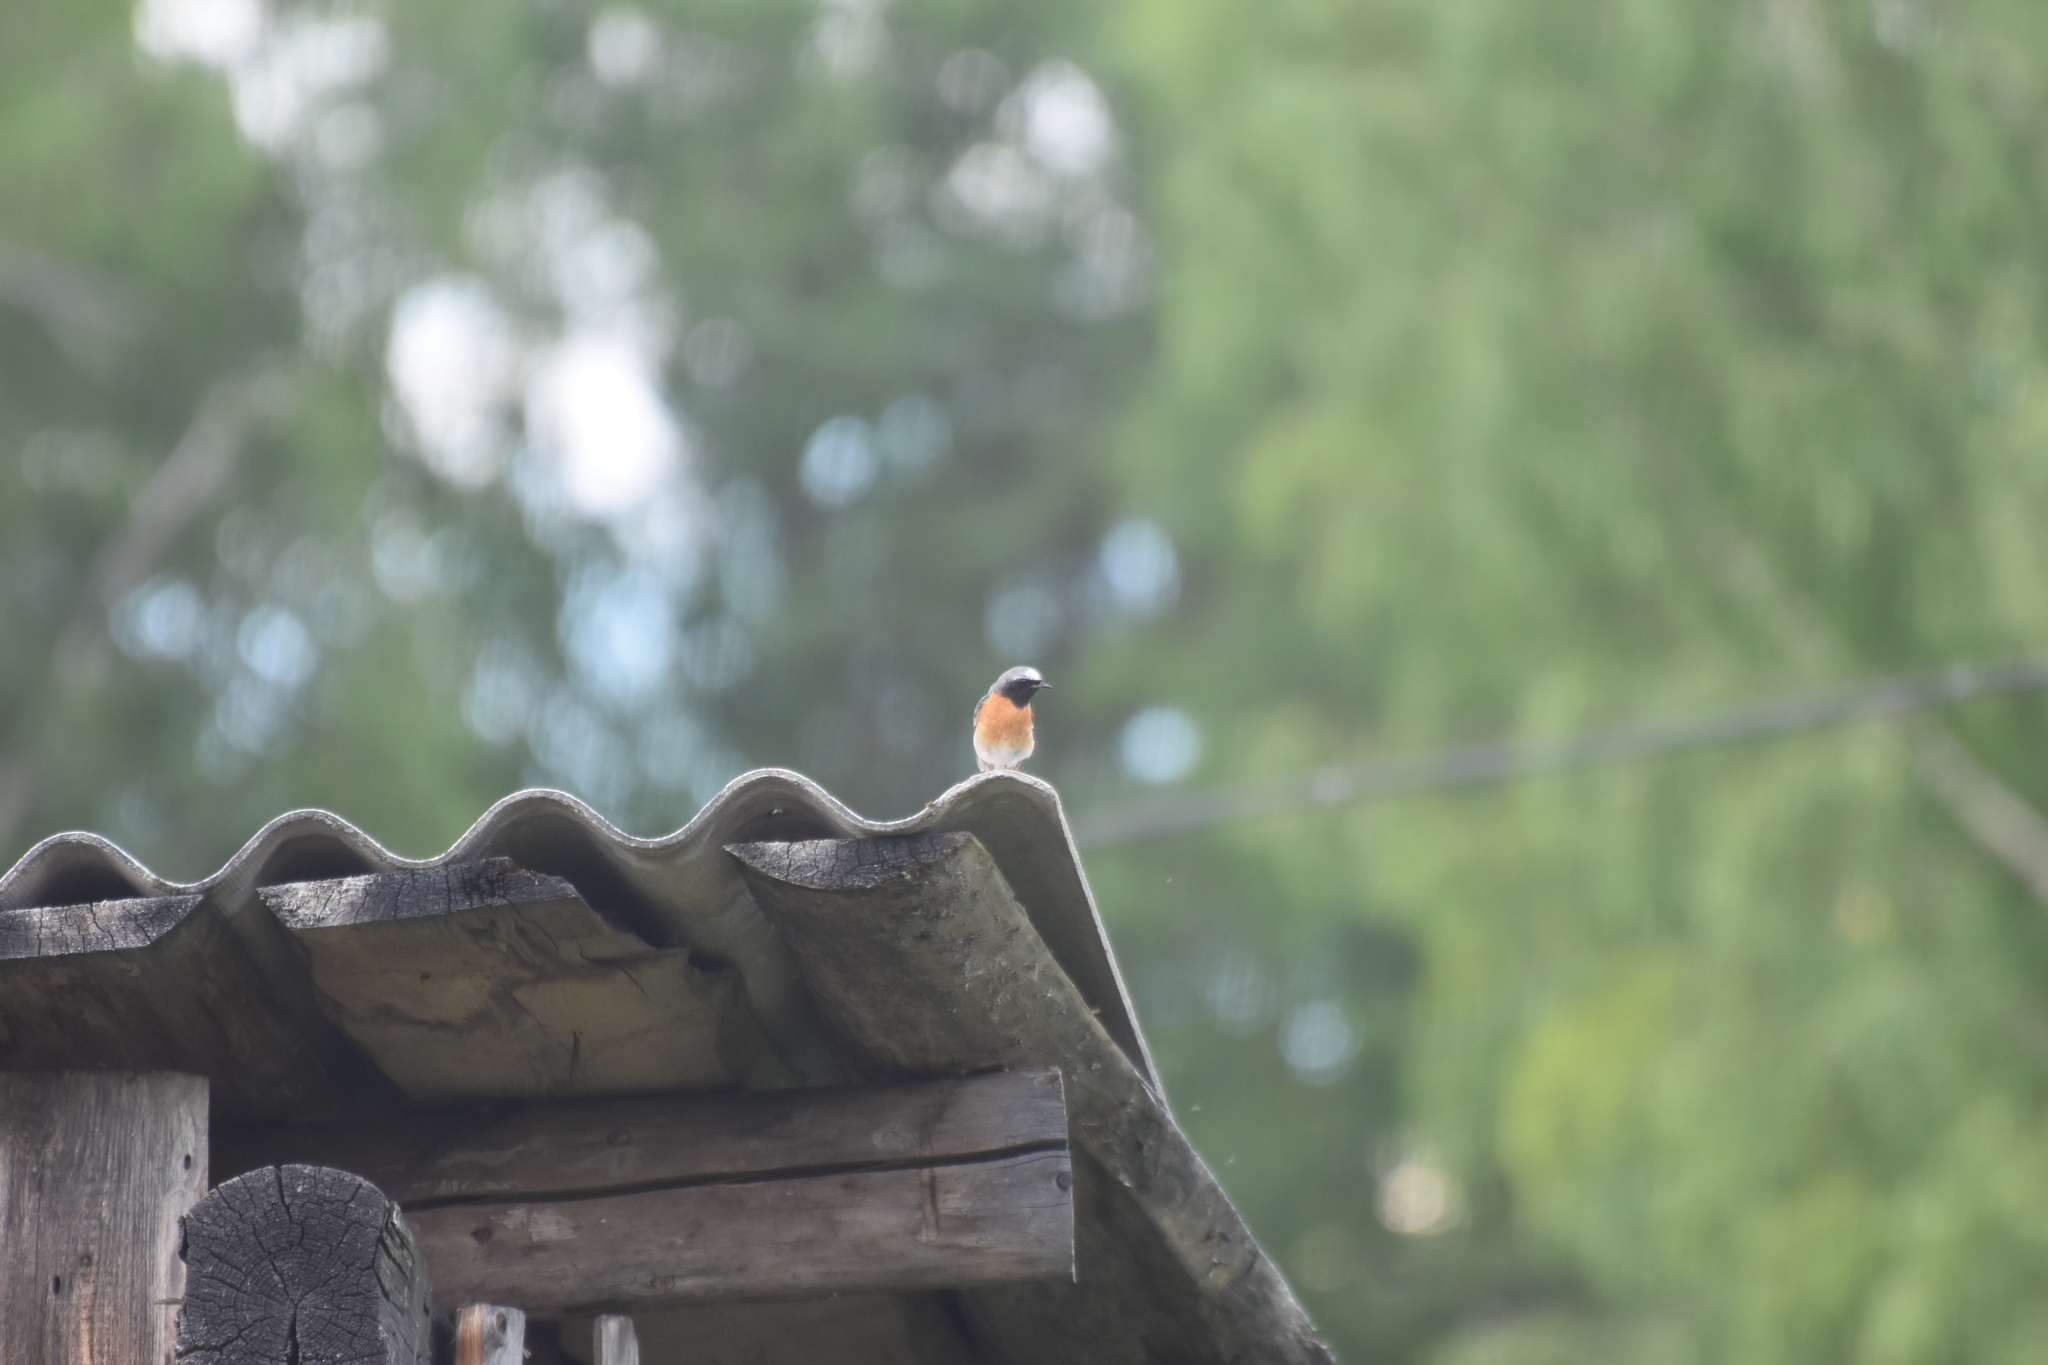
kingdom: Animalia
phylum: Chordata
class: Aves
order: Passeriformes
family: Muscicapidae
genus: Phoenicurus
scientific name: Phoenicurus phoenicurus
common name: Common redstart
